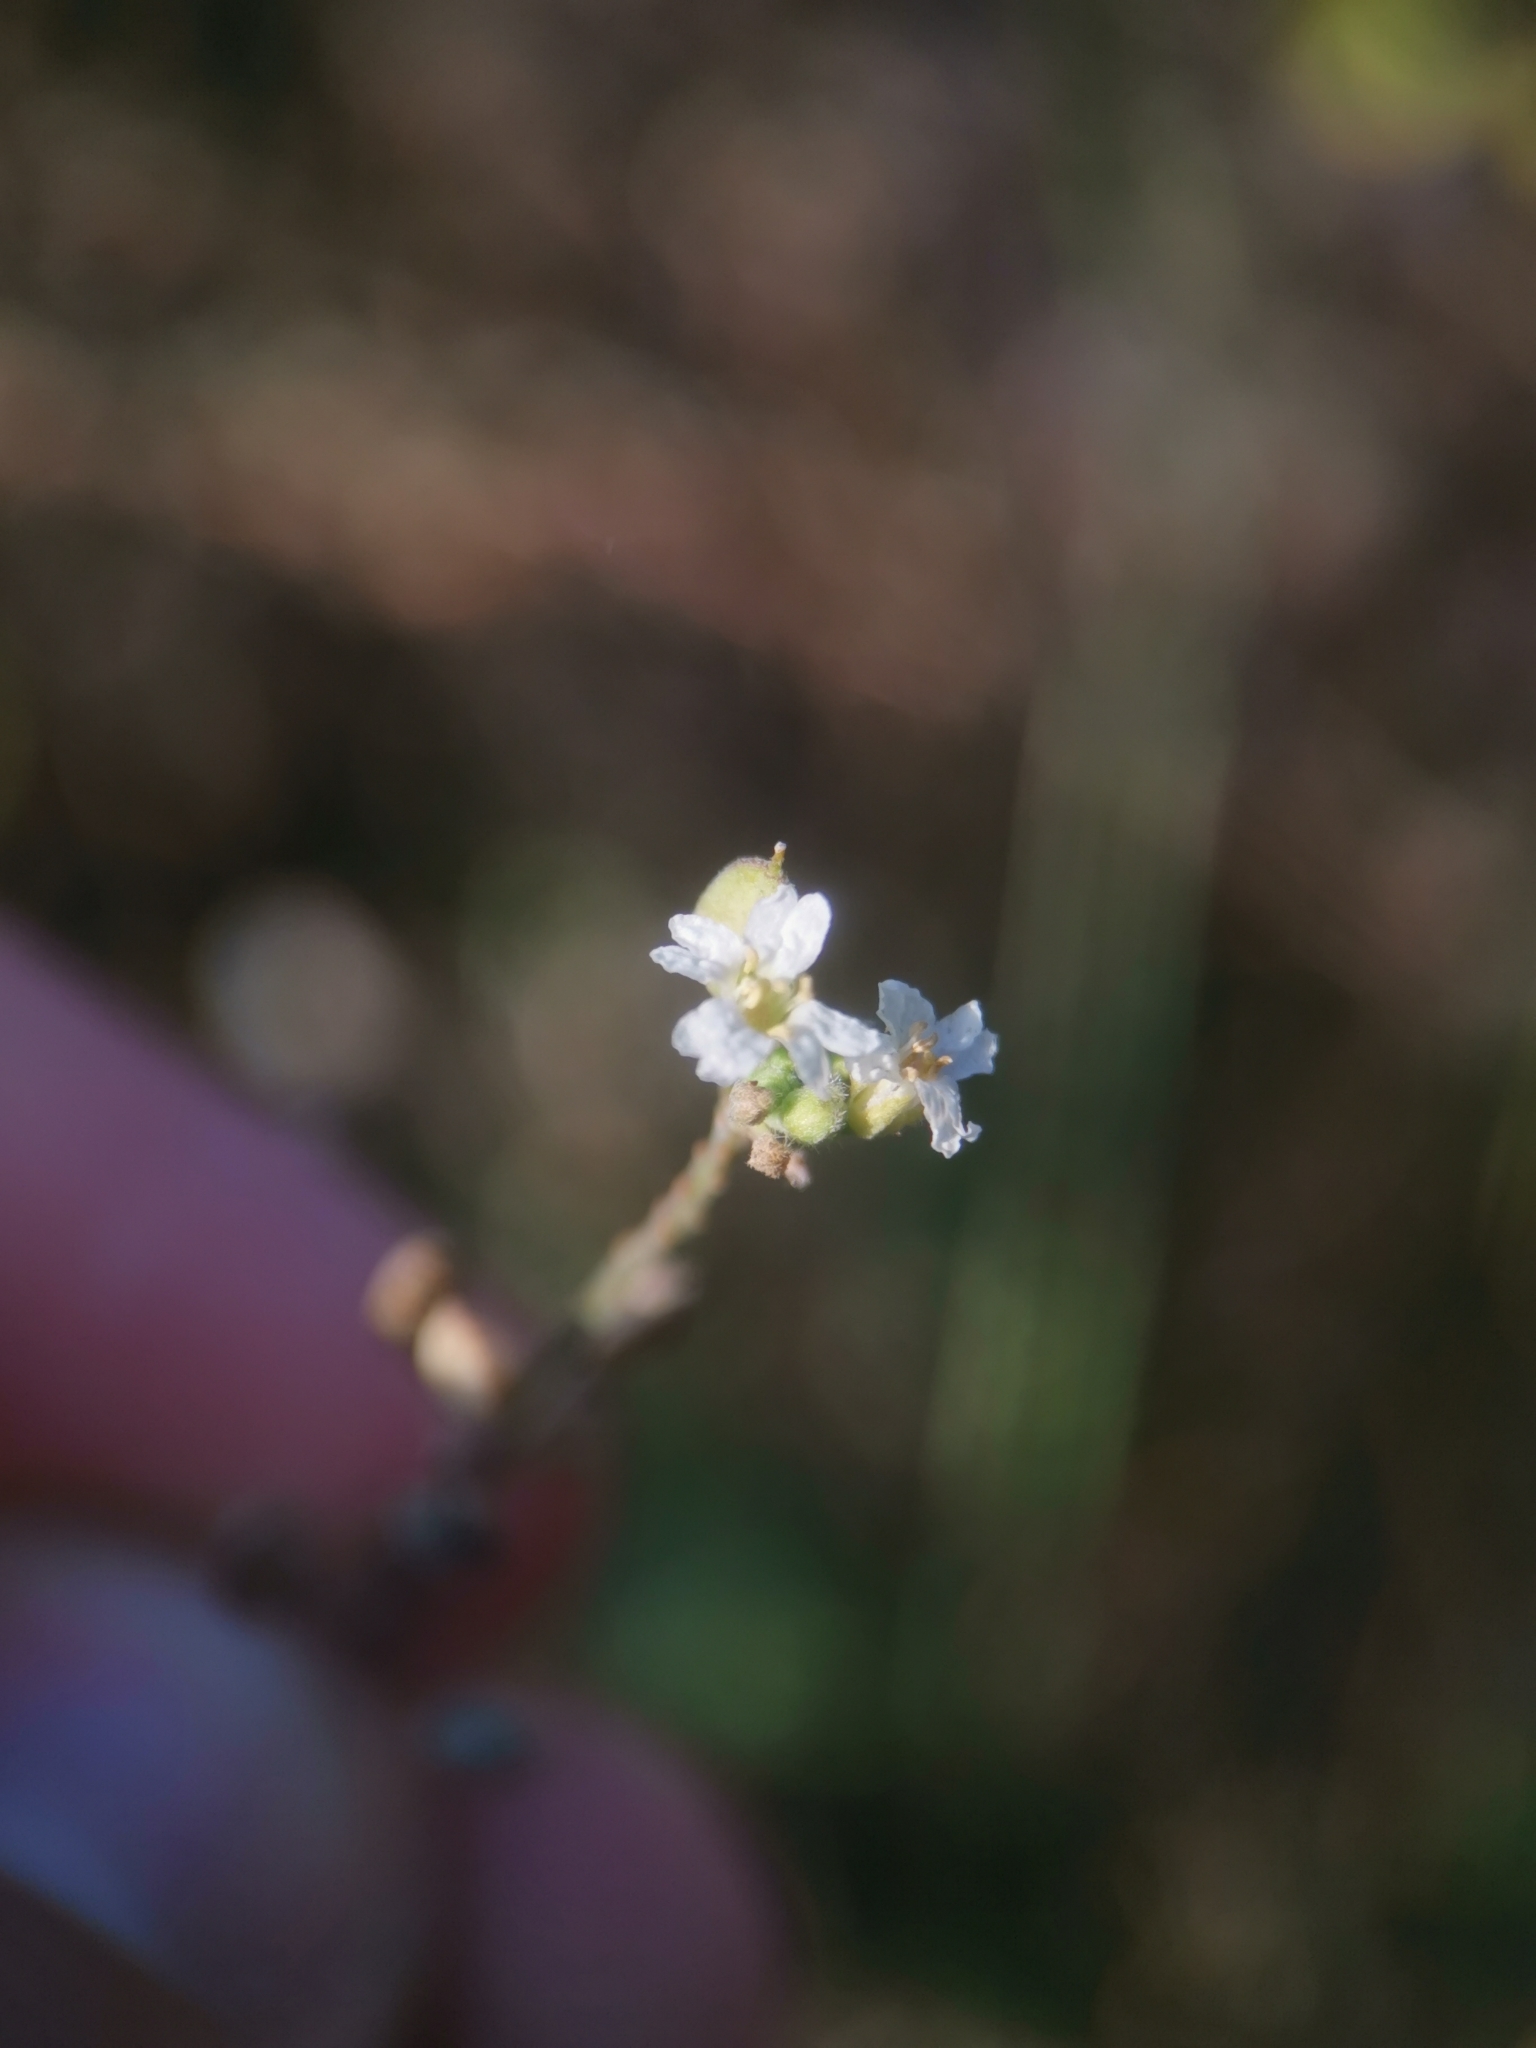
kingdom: Plantae
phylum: Tracheophyta
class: Magnoliopsida
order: Brassicales
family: Brassicaceae
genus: Berteroa
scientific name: Berteroa incana
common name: Hoary alison
